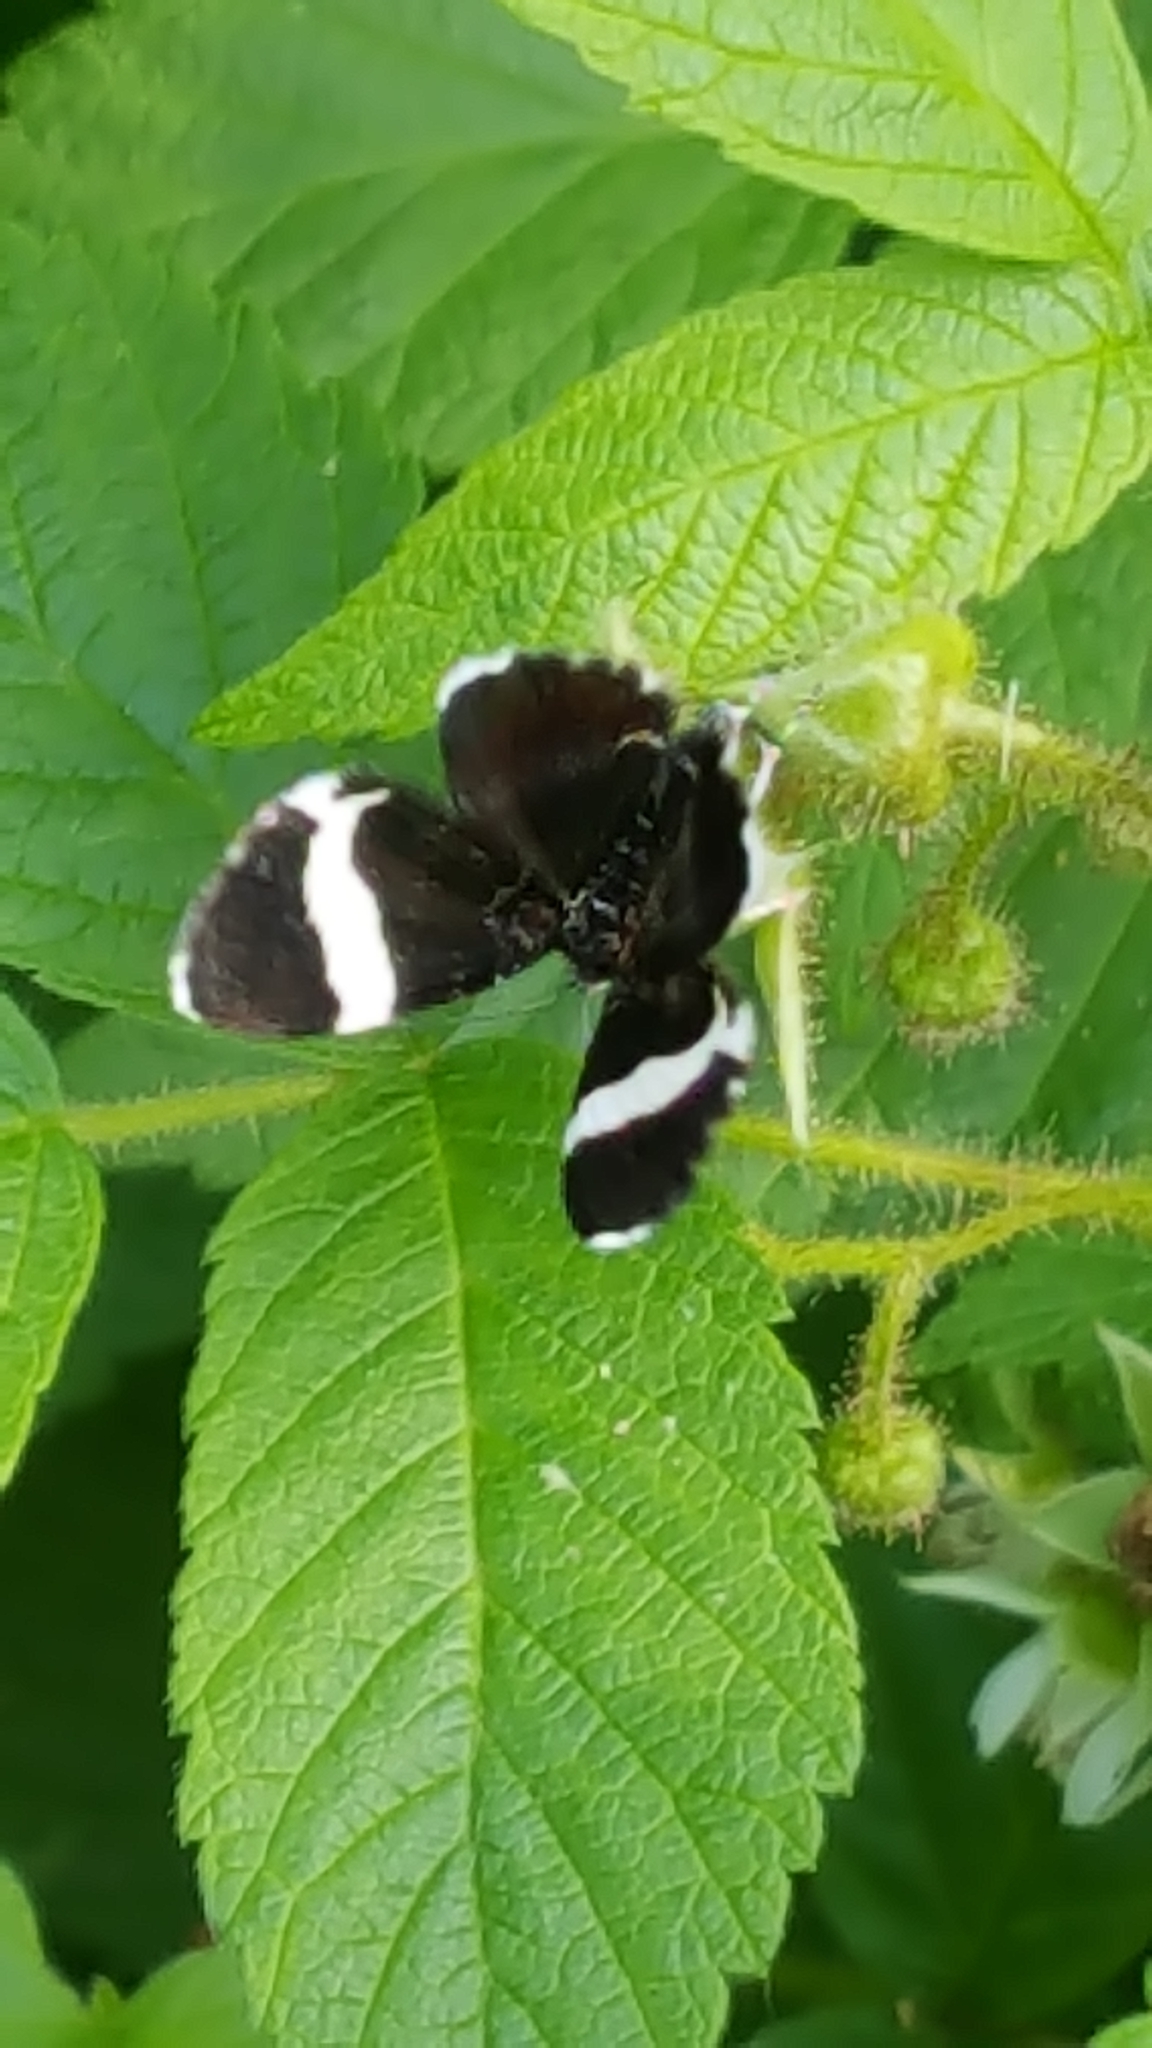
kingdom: Animalia
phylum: Arthropoda
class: Insecta
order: Lepidoptera
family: Geometridae
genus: Trichodezia
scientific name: Trichodezia albovittata
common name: White striped black
